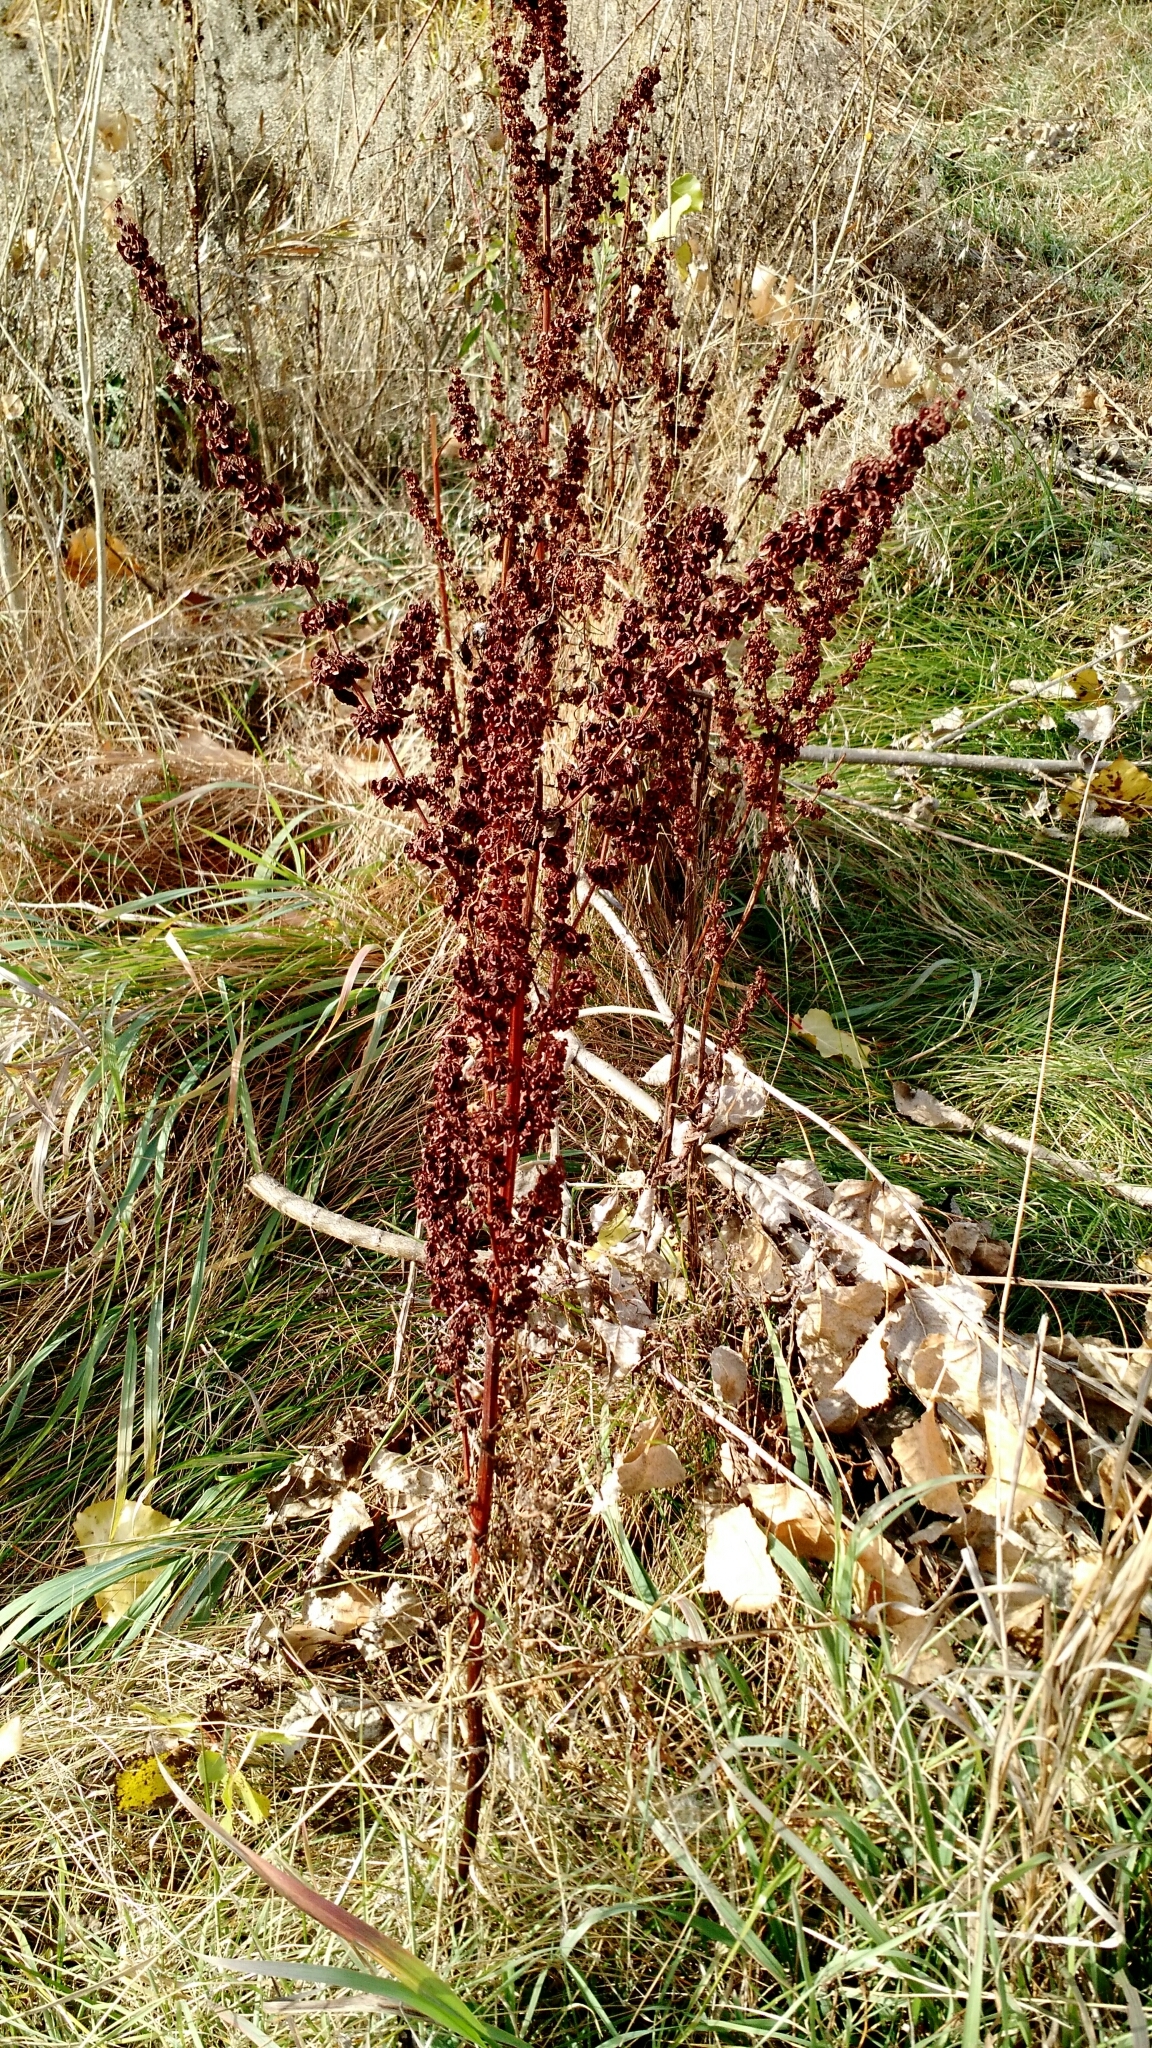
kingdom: Plantae
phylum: Tracheophyta
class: Magnoliopsida
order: Caryophyllales
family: Polygonaceae
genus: Rumex
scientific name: Rumex crispus
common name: Curled dock
